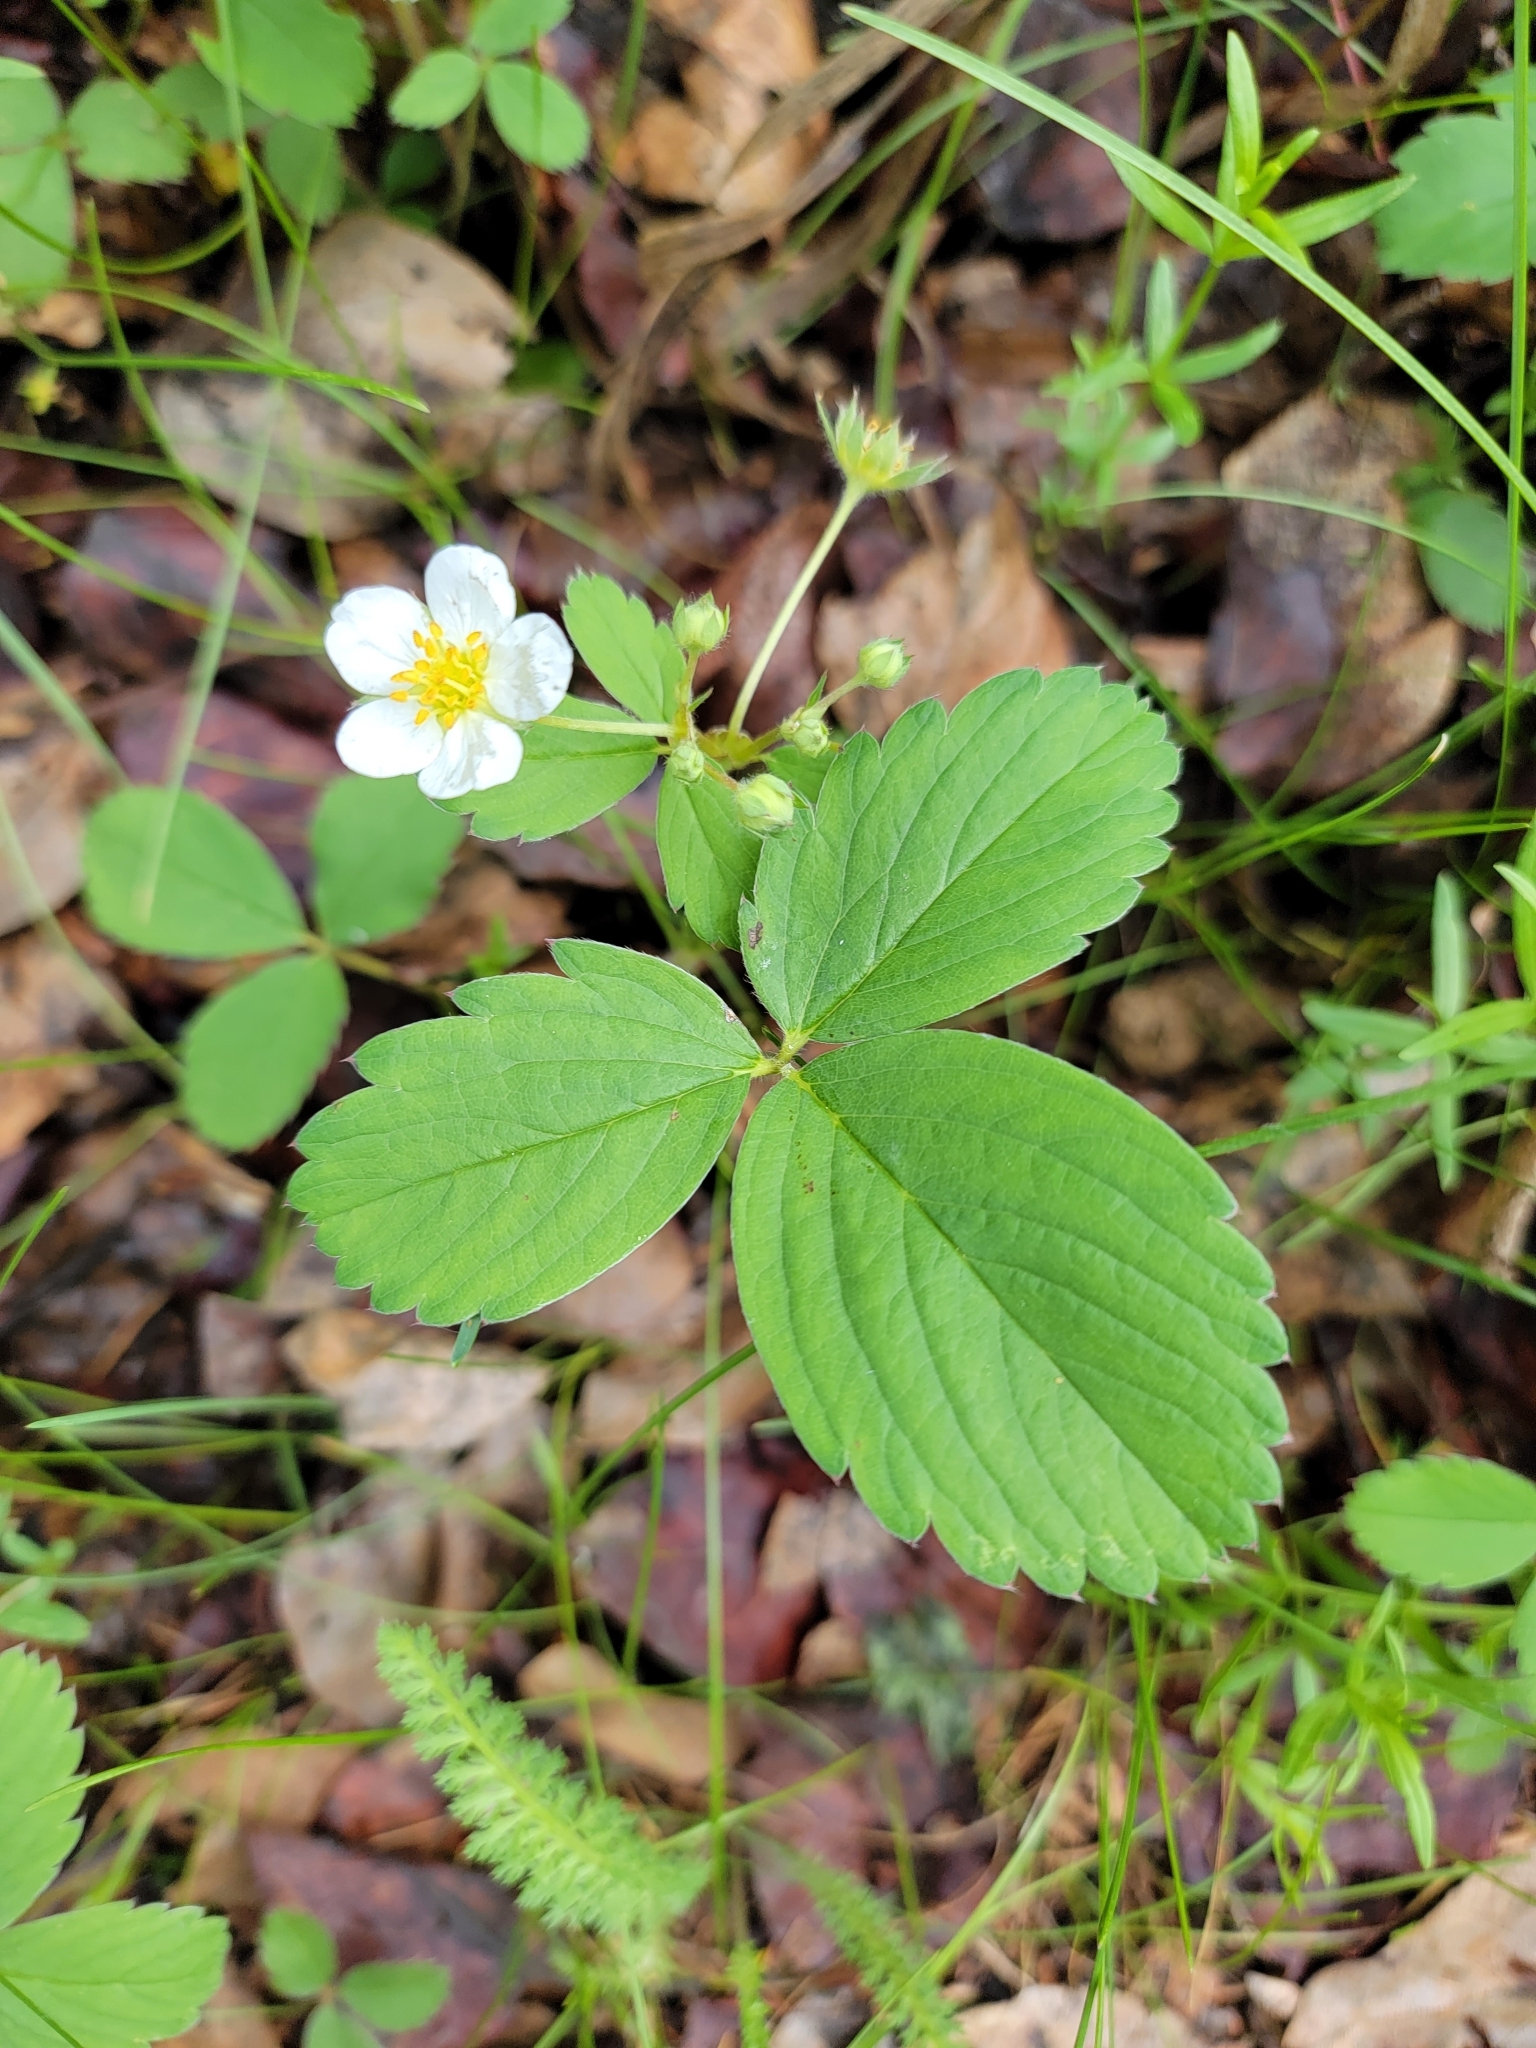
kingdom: Plantae
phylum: Tracheophyta
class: Magnoliopsida
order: Rosales
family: Rosaceae
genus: Fragaria
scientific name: Fragaria virginiana
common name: Thickleaved wild strawberry
